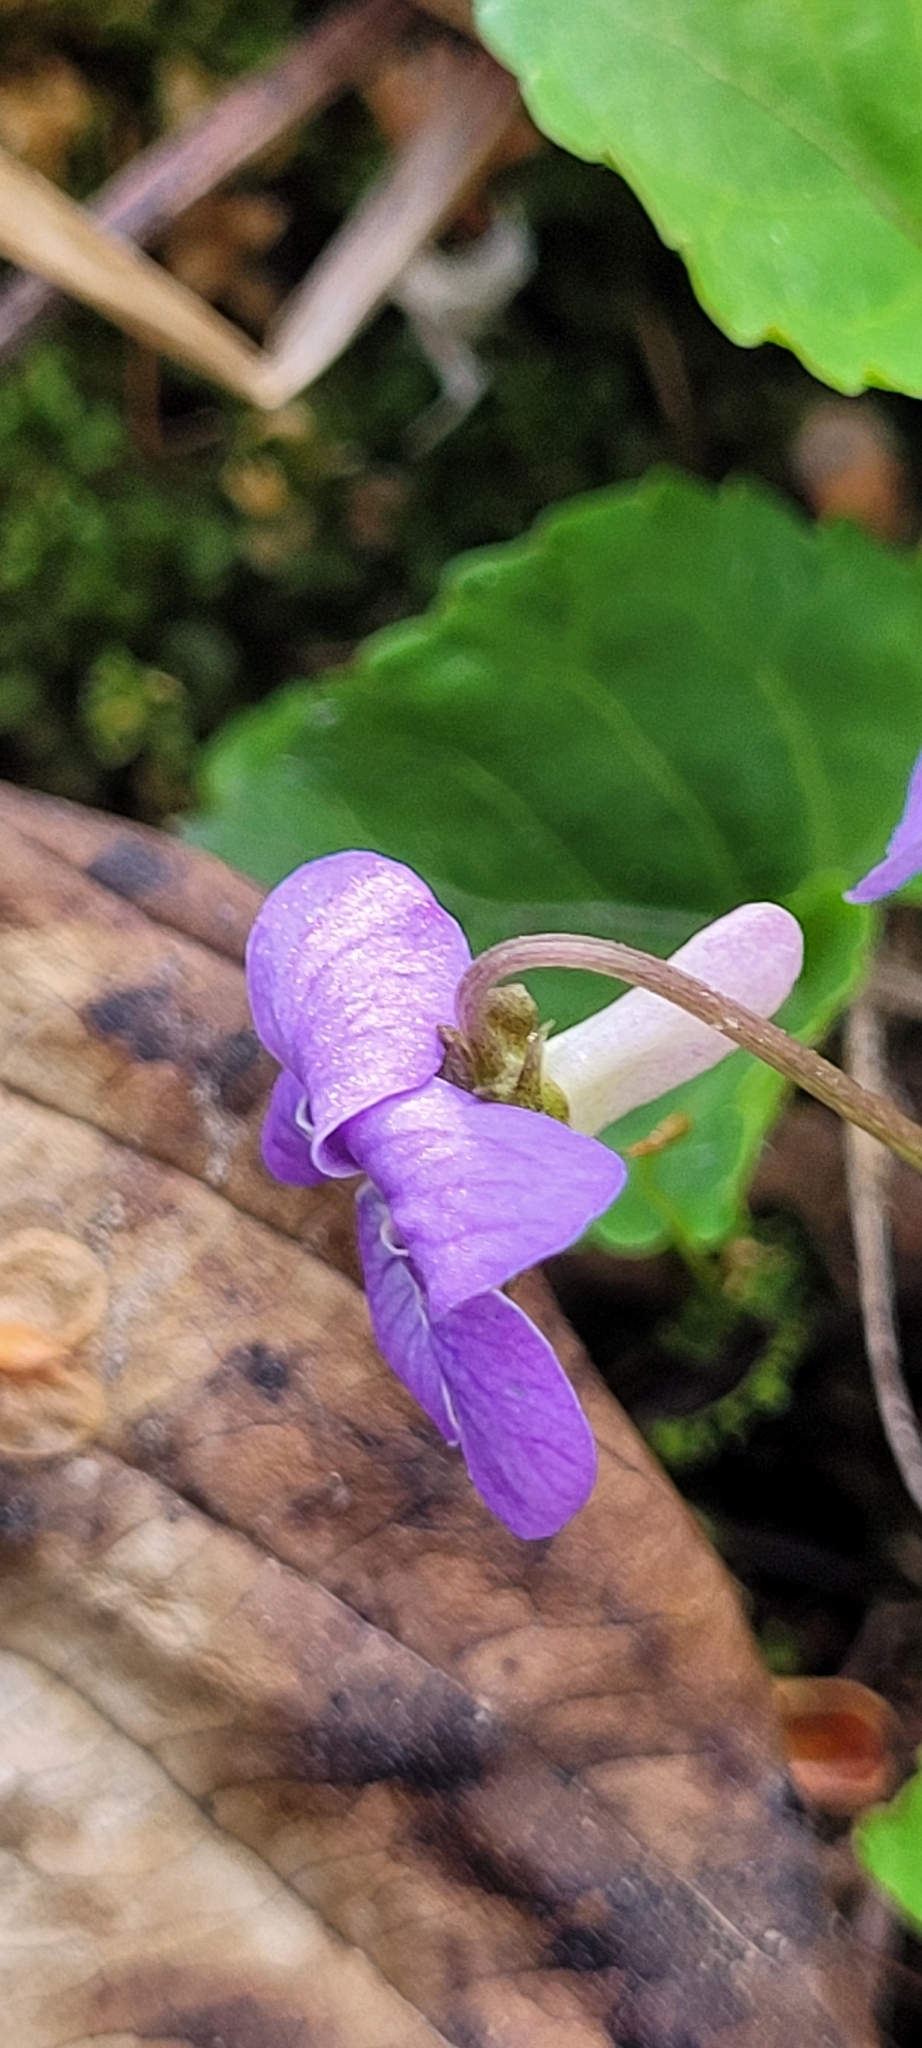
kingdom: Plantae
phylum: Tracheophyta
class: Magnoliopsida
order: Malpighiales
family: Violaceae
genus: Viola
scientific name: Viola selkirkii
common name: Selkirk's violet
